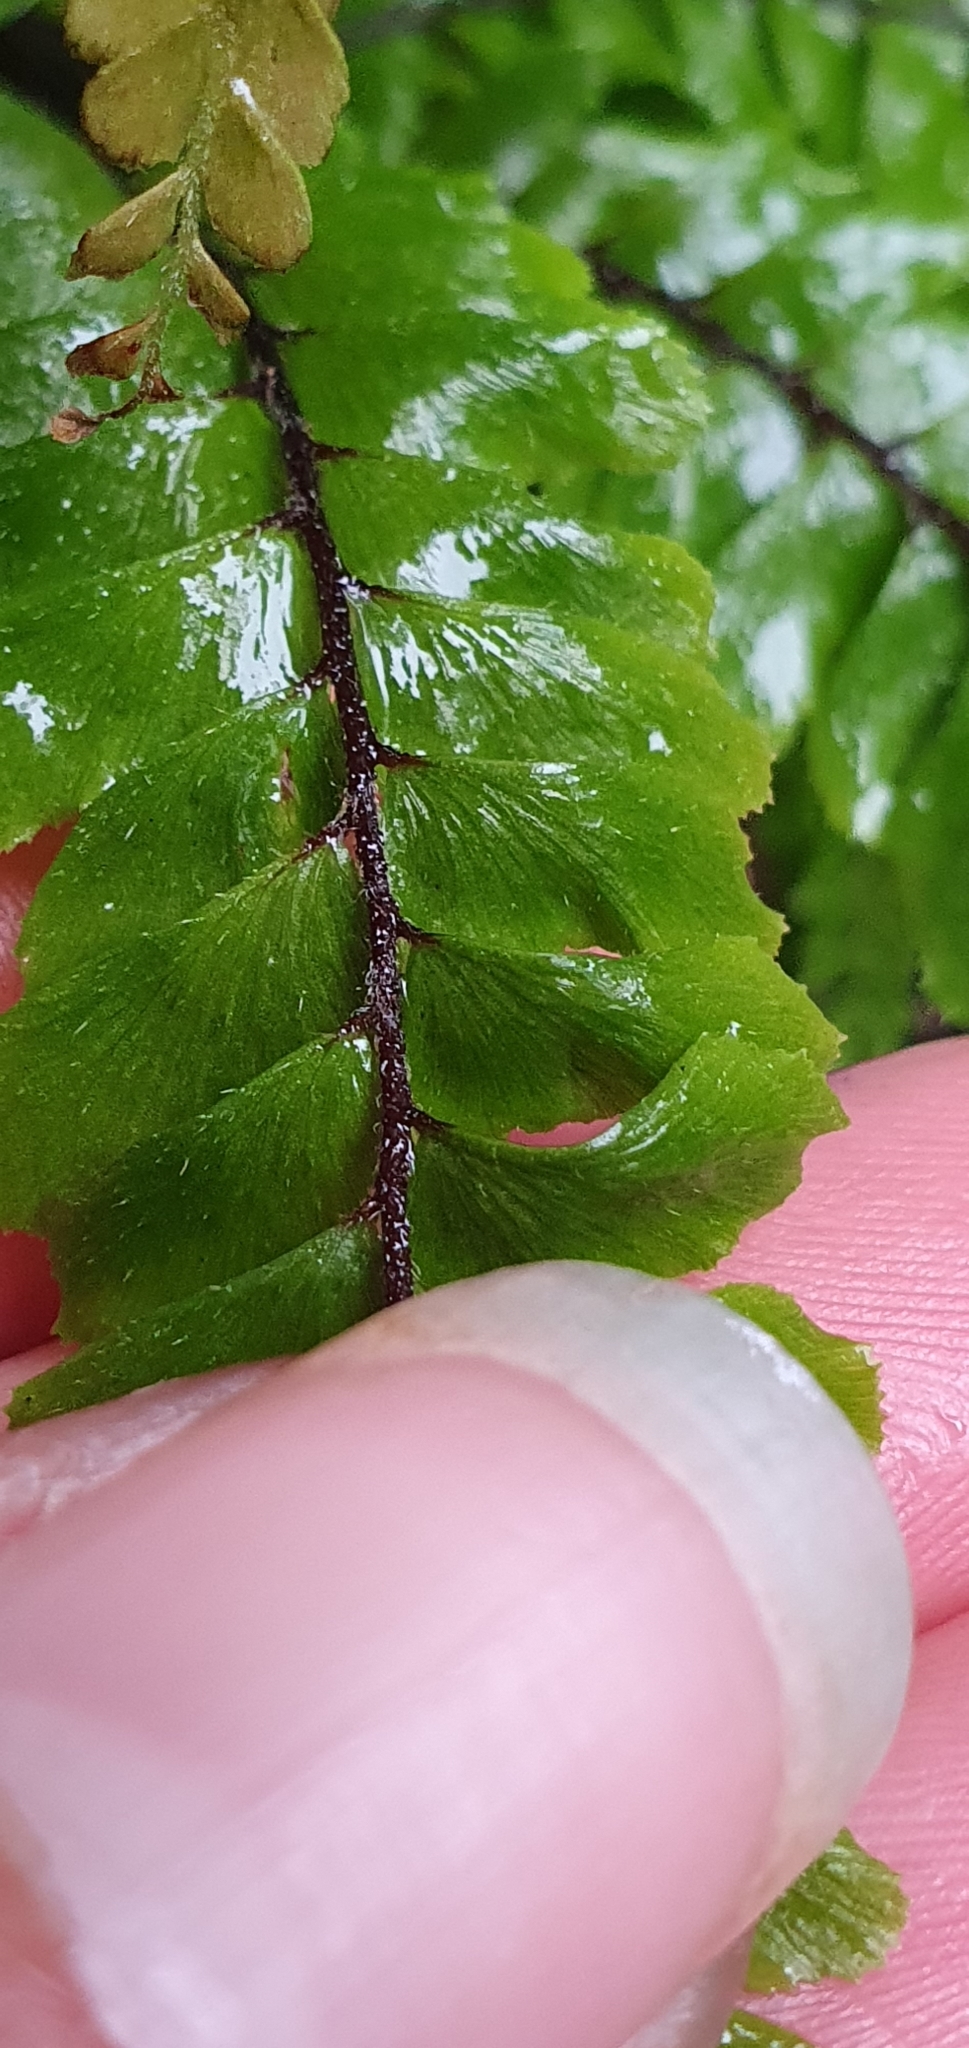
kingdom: Plantae
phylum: Tracheophyta
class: Polypodiopsida
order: Polypodiales
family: Pteridaceae
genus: Adiantum
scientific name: Adiantum hispidulum
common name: Rough maidenhair
